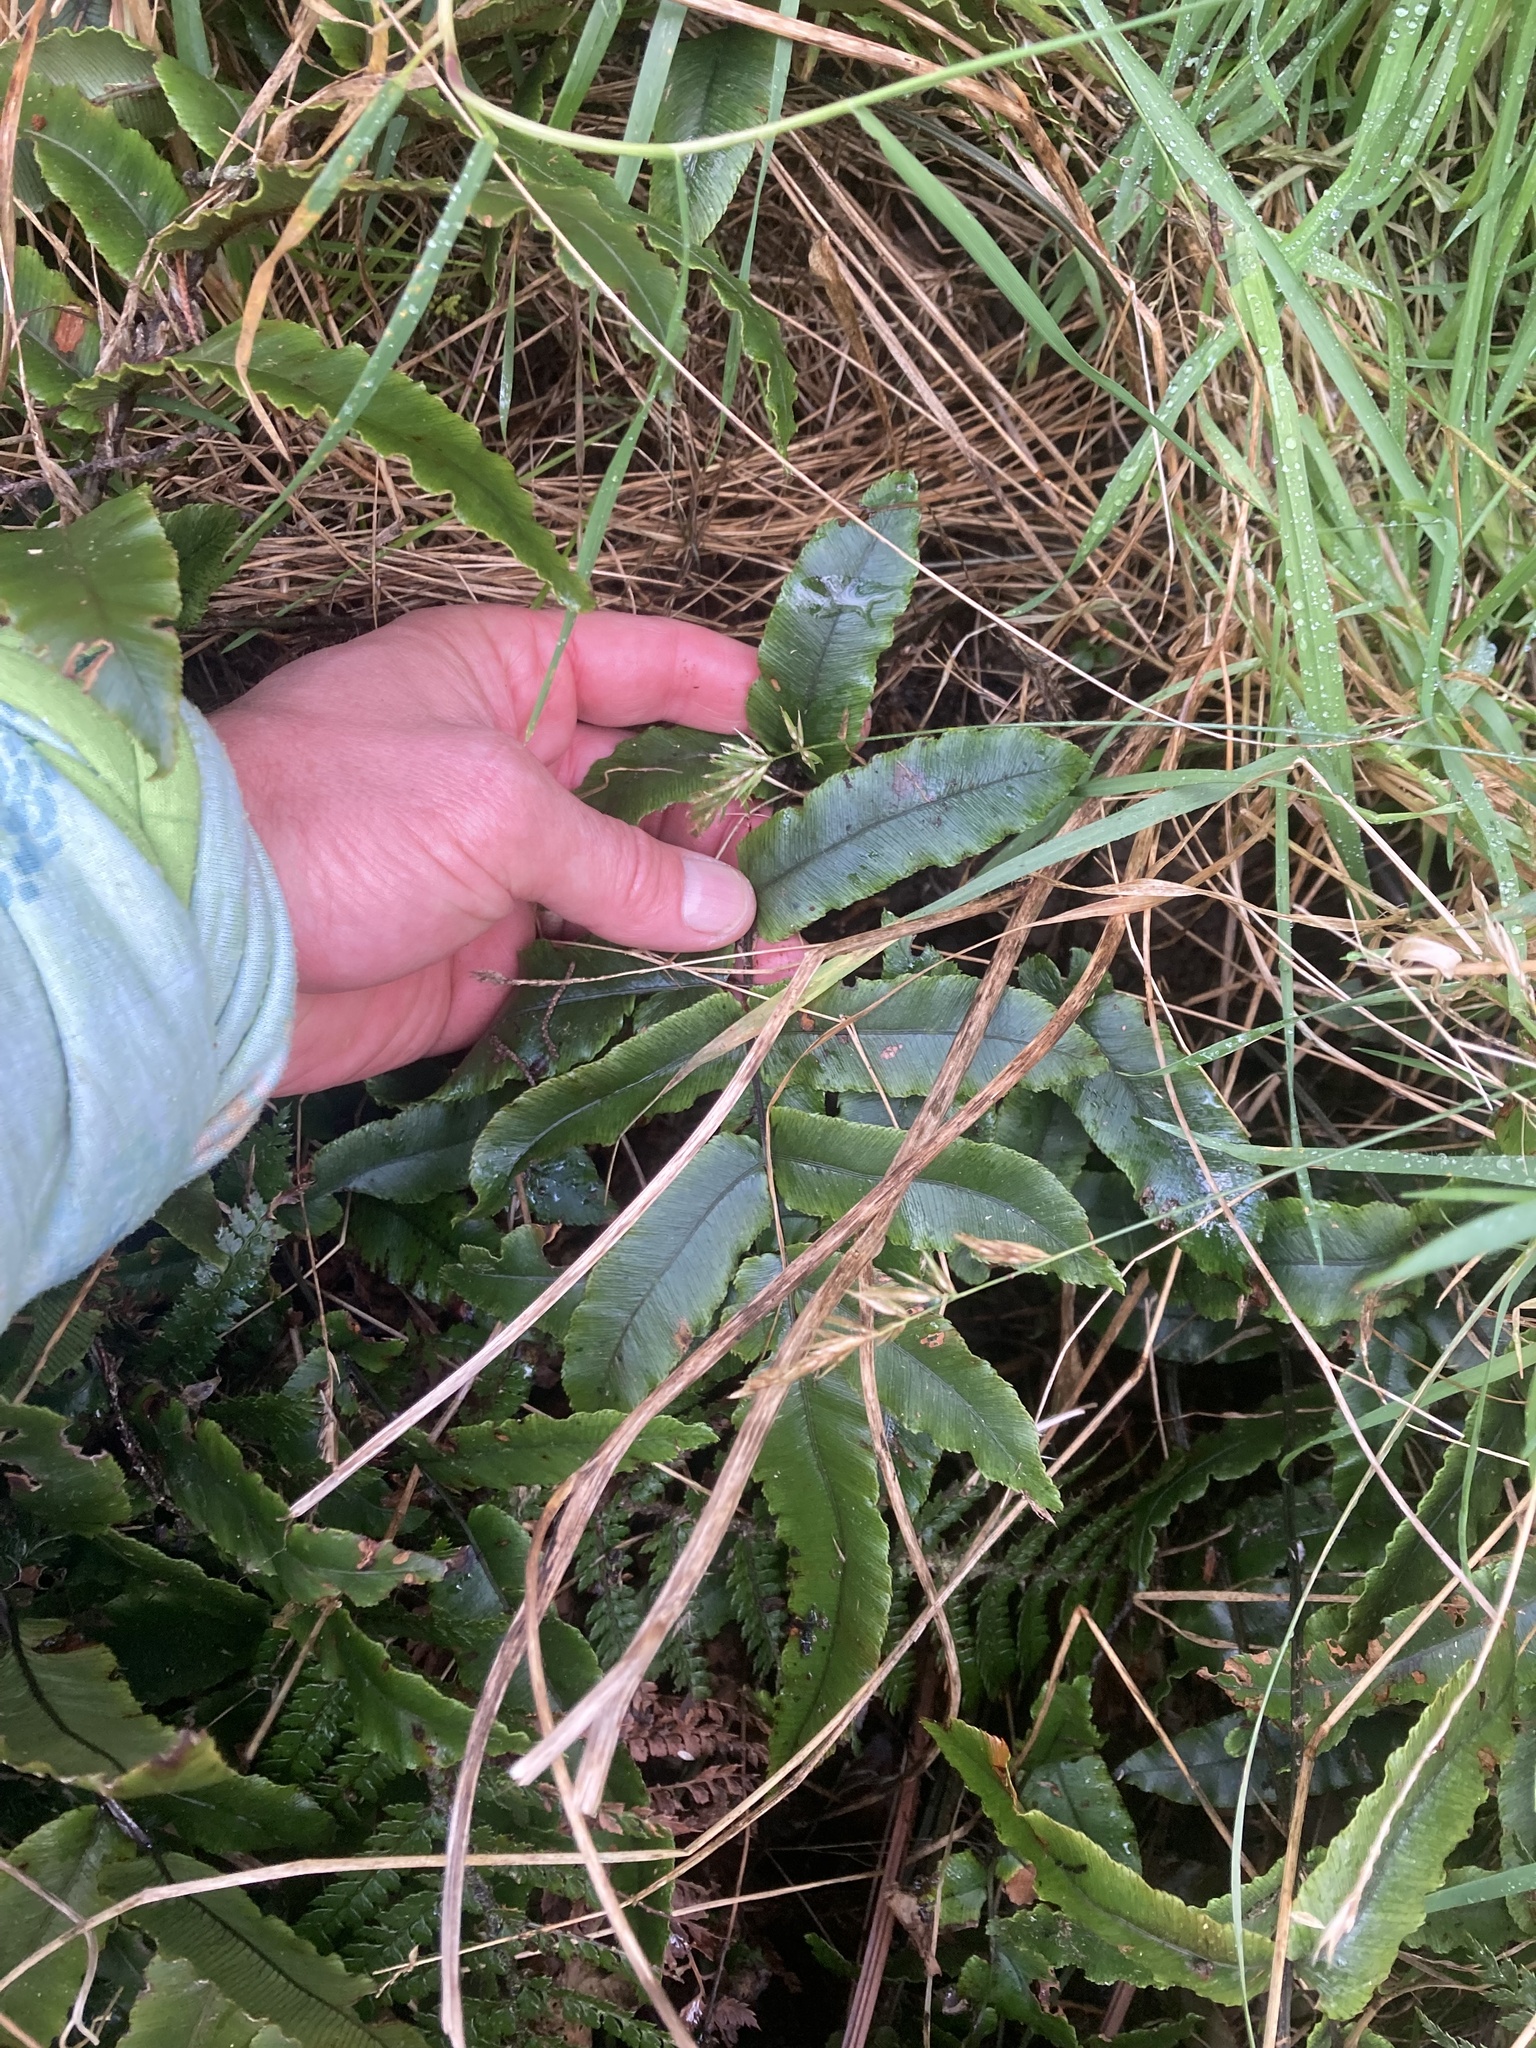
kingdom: Plantae
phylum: Tracheophyta
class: Polypodiopsida
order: Polypodiales
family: Blechnaceae
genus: Parablechnum
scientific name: Parablechnum montanum
